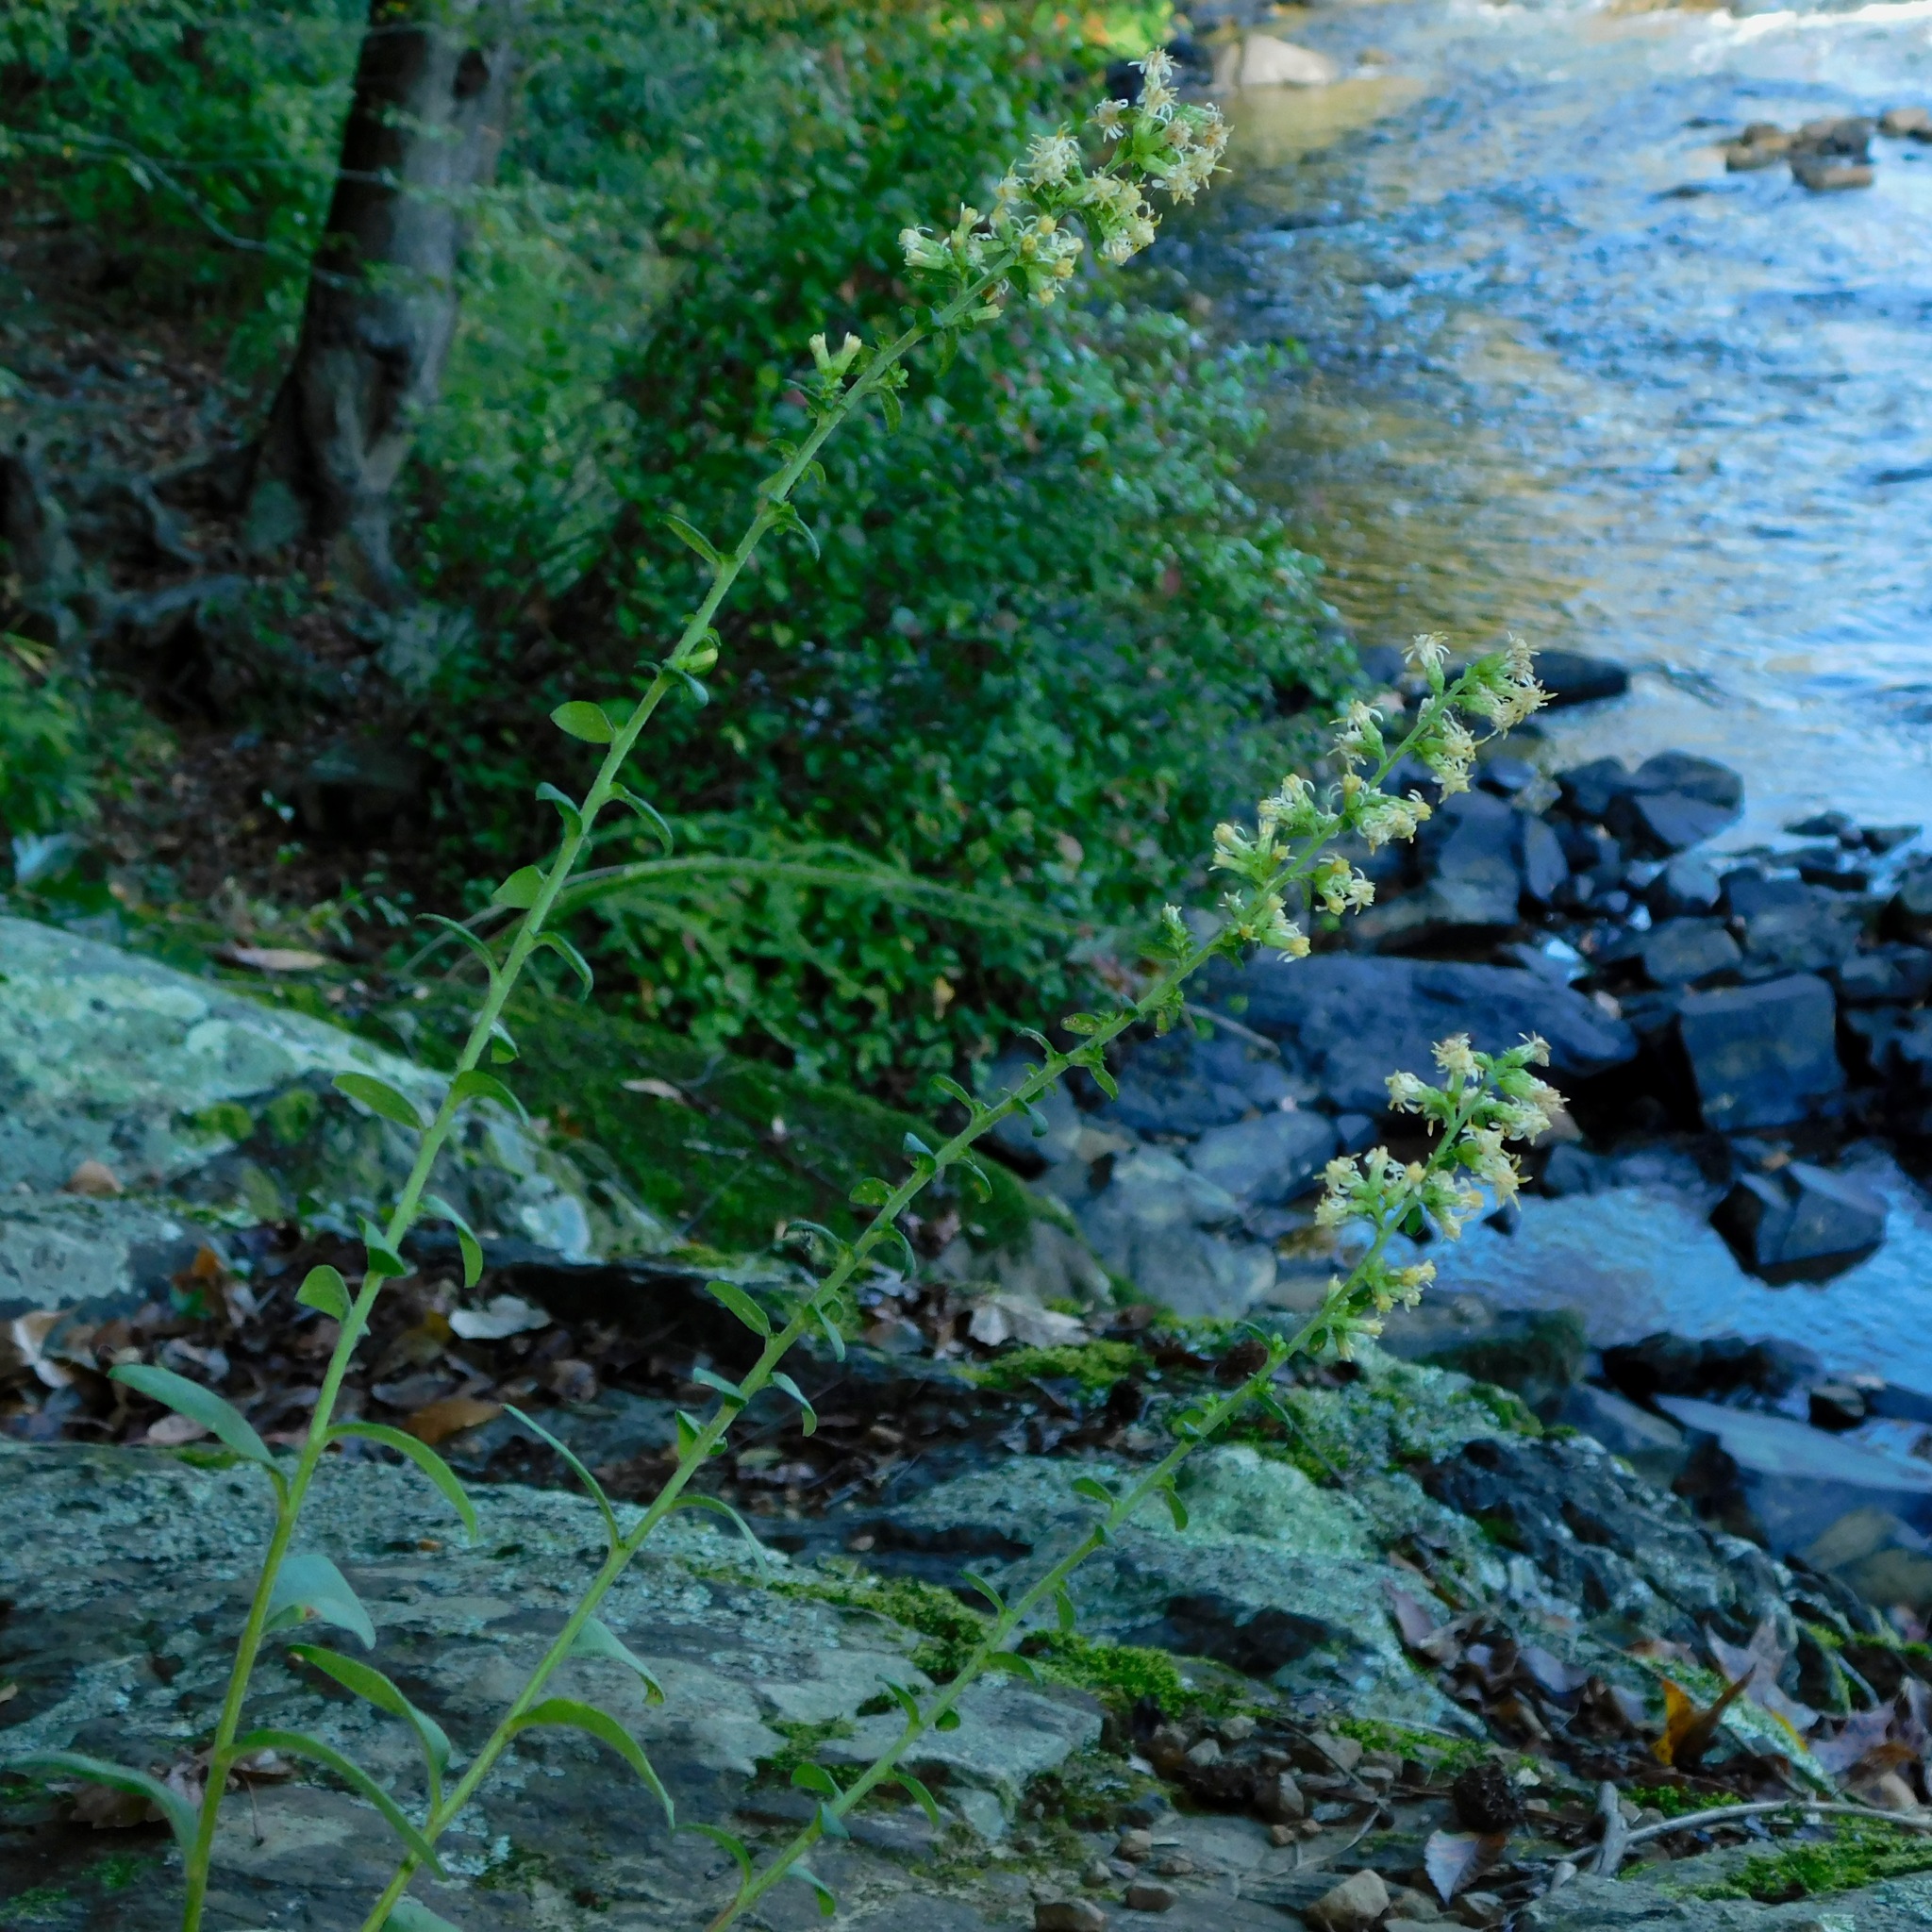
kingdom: Plantae
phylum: Tracheophyta
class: Magnoliopsida
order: Asterales
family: Asteraceae
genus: Solidago
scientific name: Solidago bicolor
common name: Silverrod
